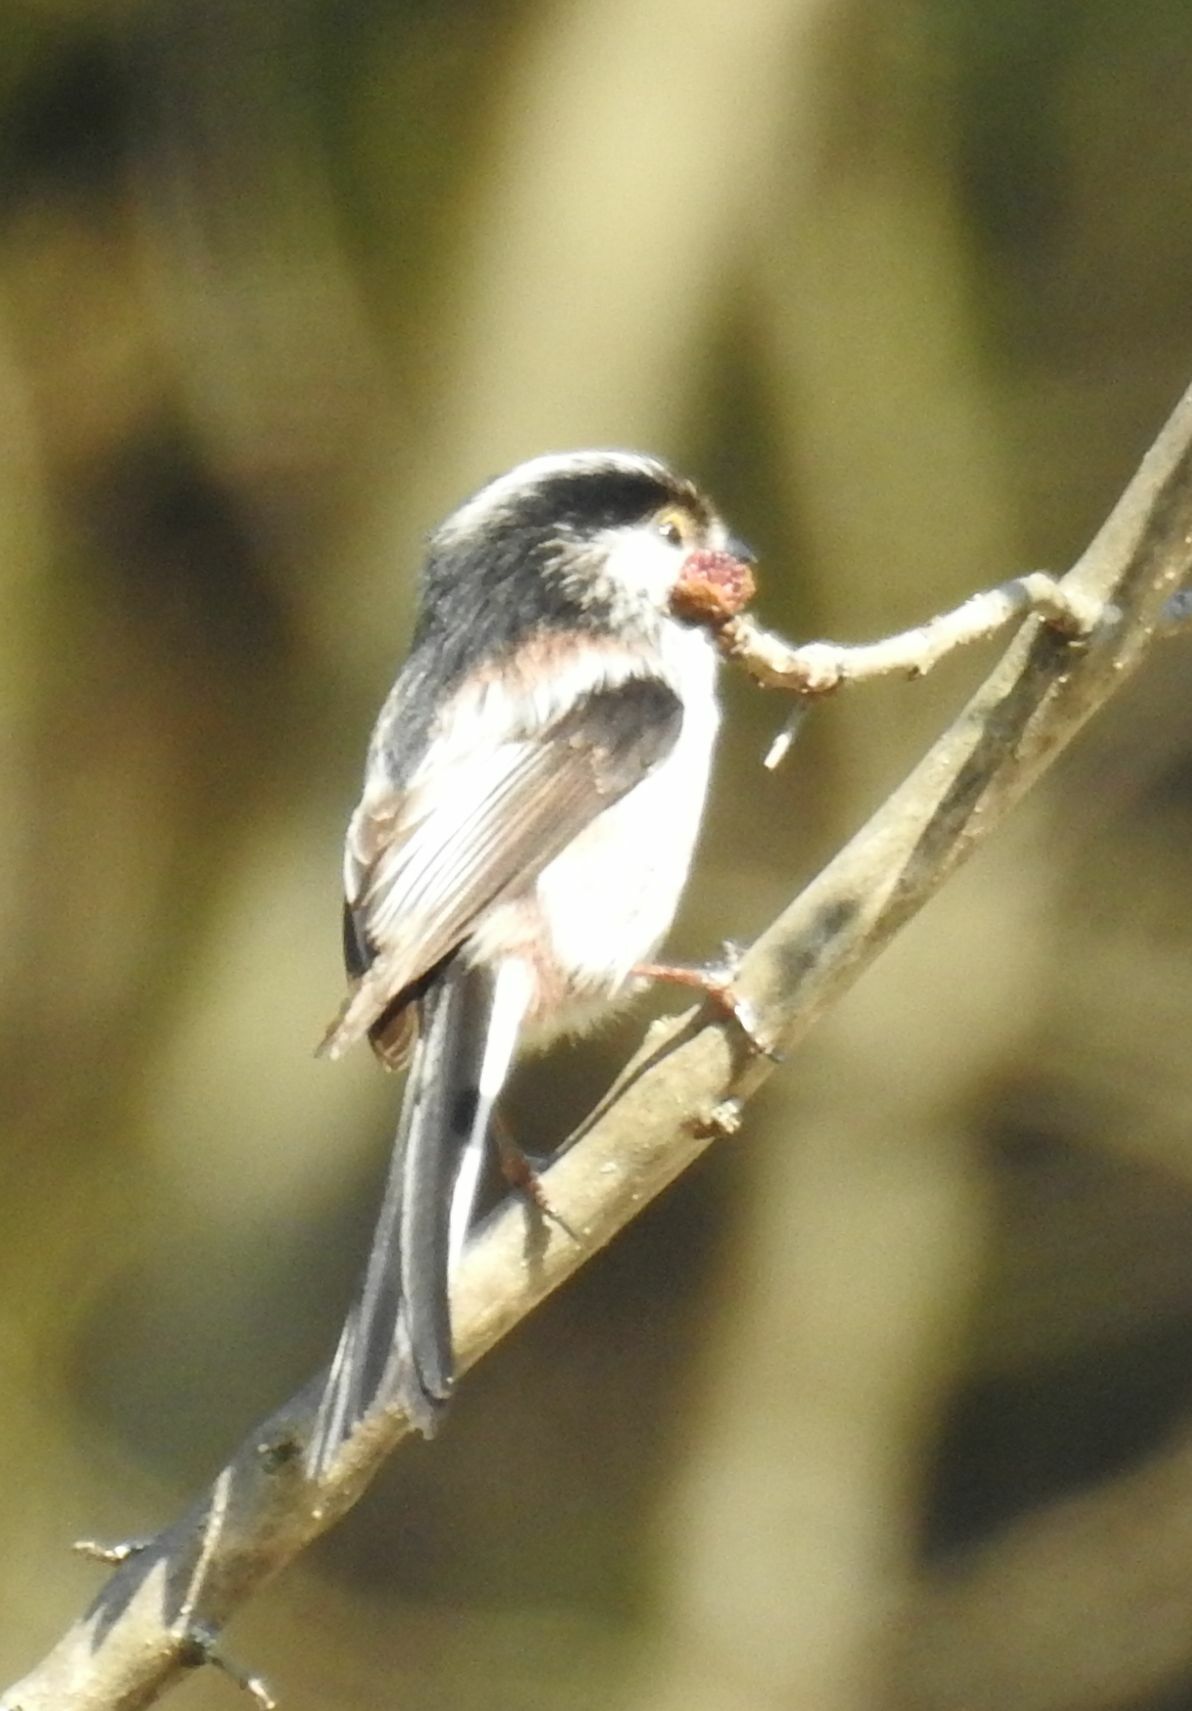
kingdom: Animalia
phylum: Chordata
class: Aves
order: Passeriformes
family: Aegithalidae
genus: Aegithalos
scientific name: Aegithalos caudatus
